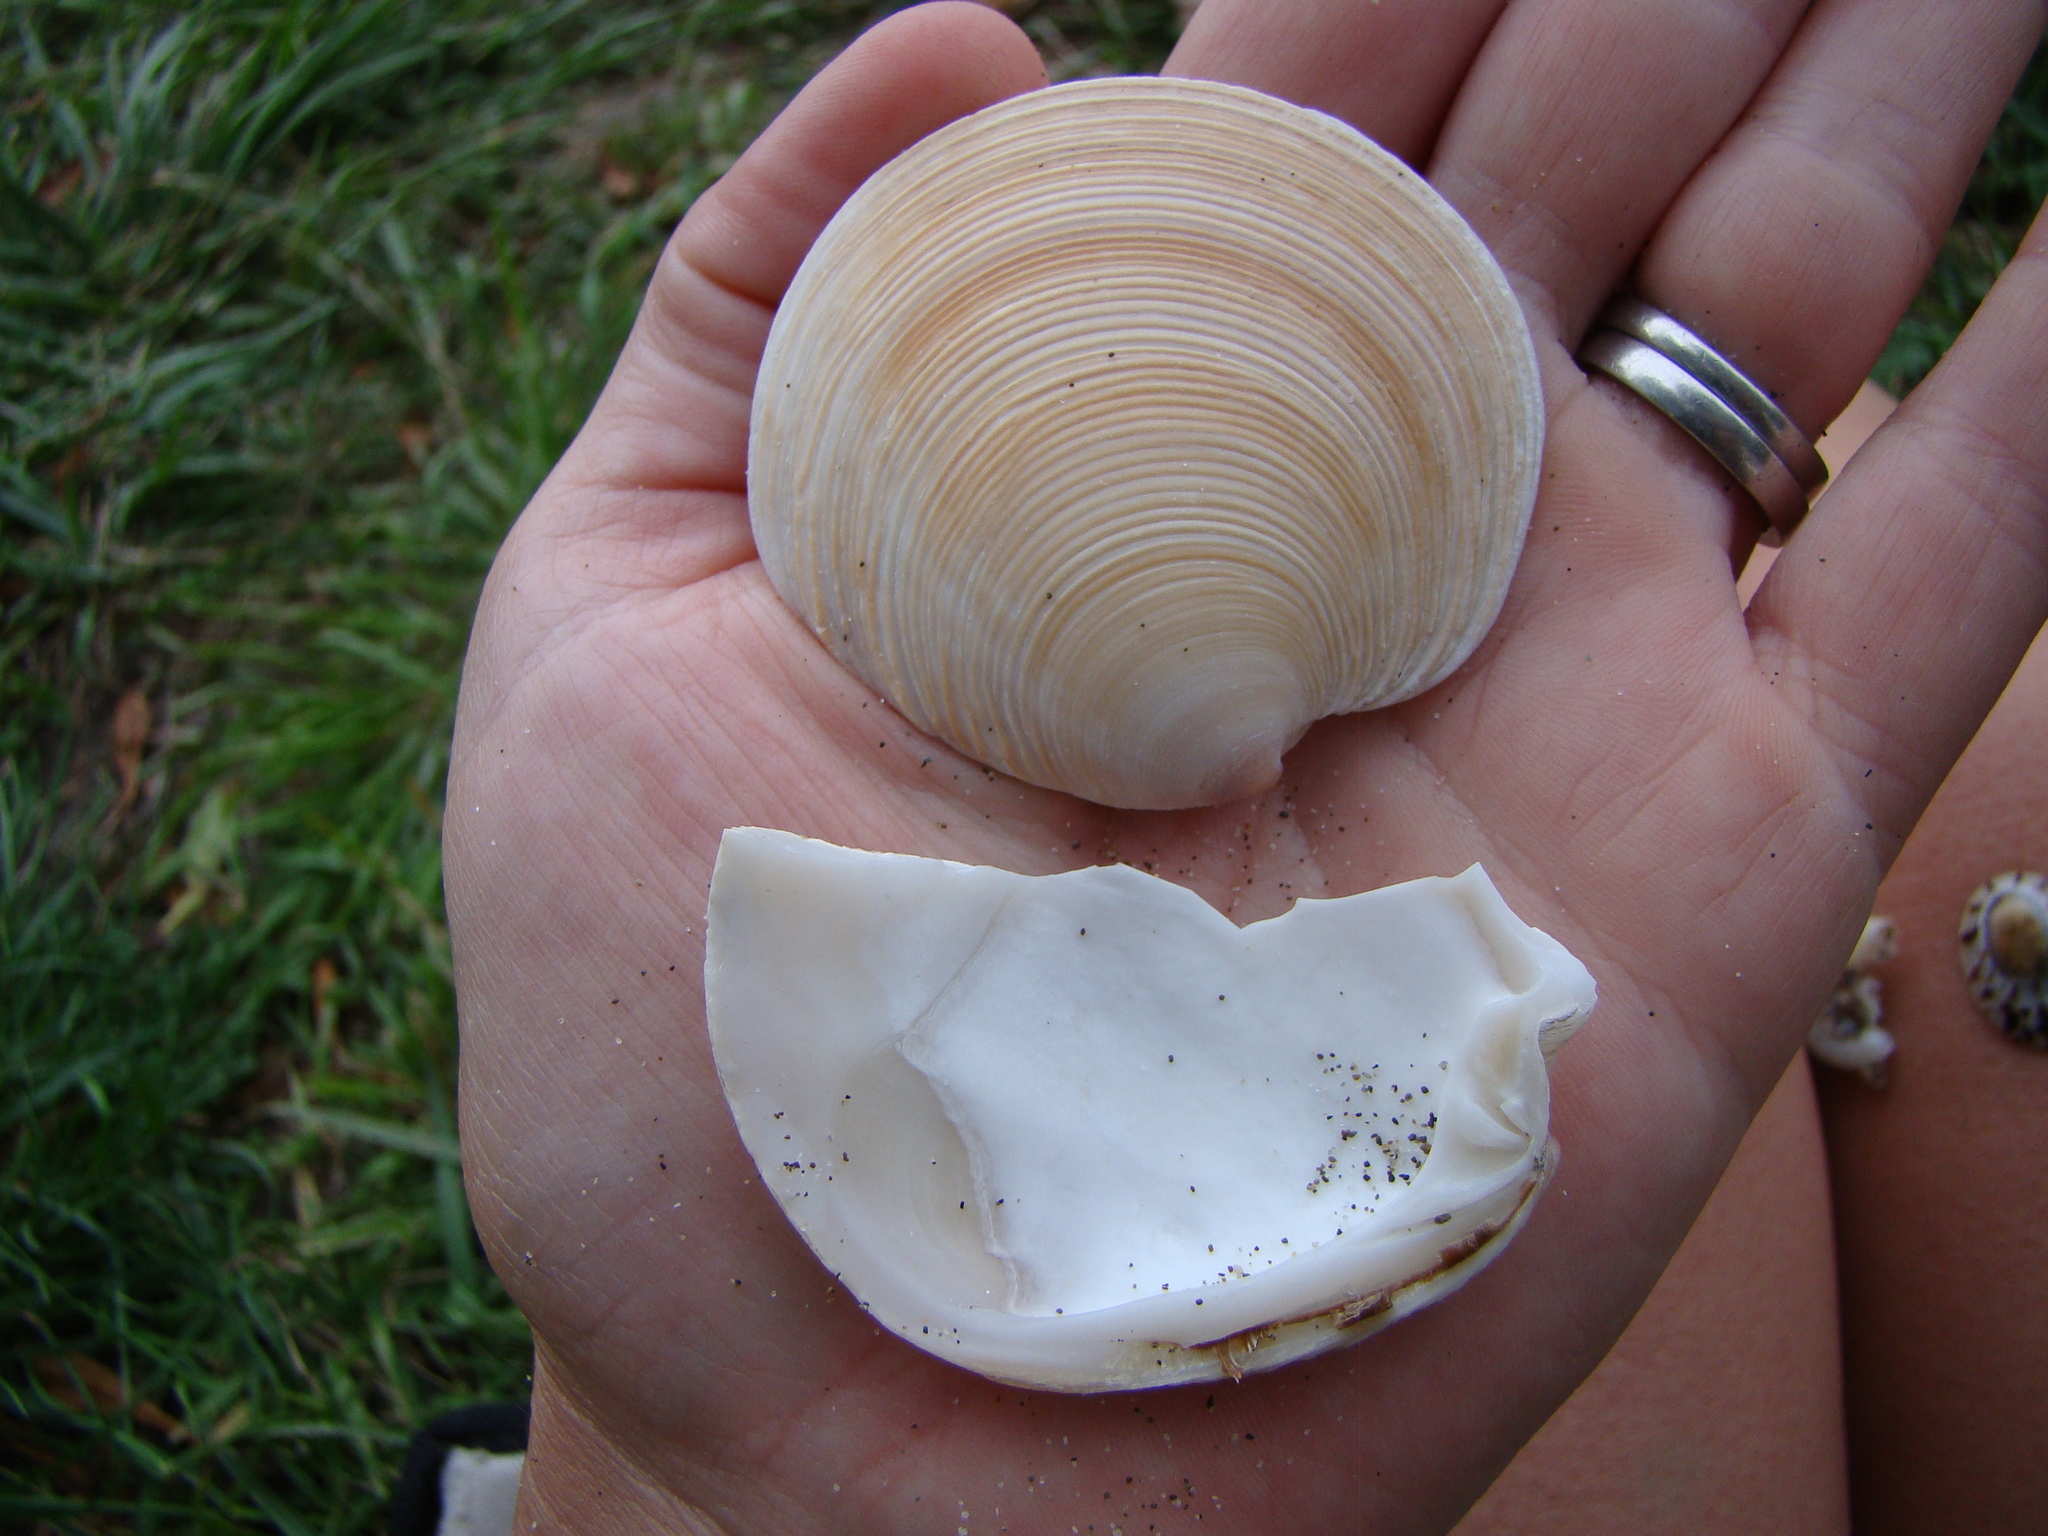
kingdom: Animalia
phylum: Mollusca
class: Bivalvia
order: Venerida
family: Veneridae
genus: Dosinia
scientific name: Dosinia anus
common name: Old-woman dosinia
